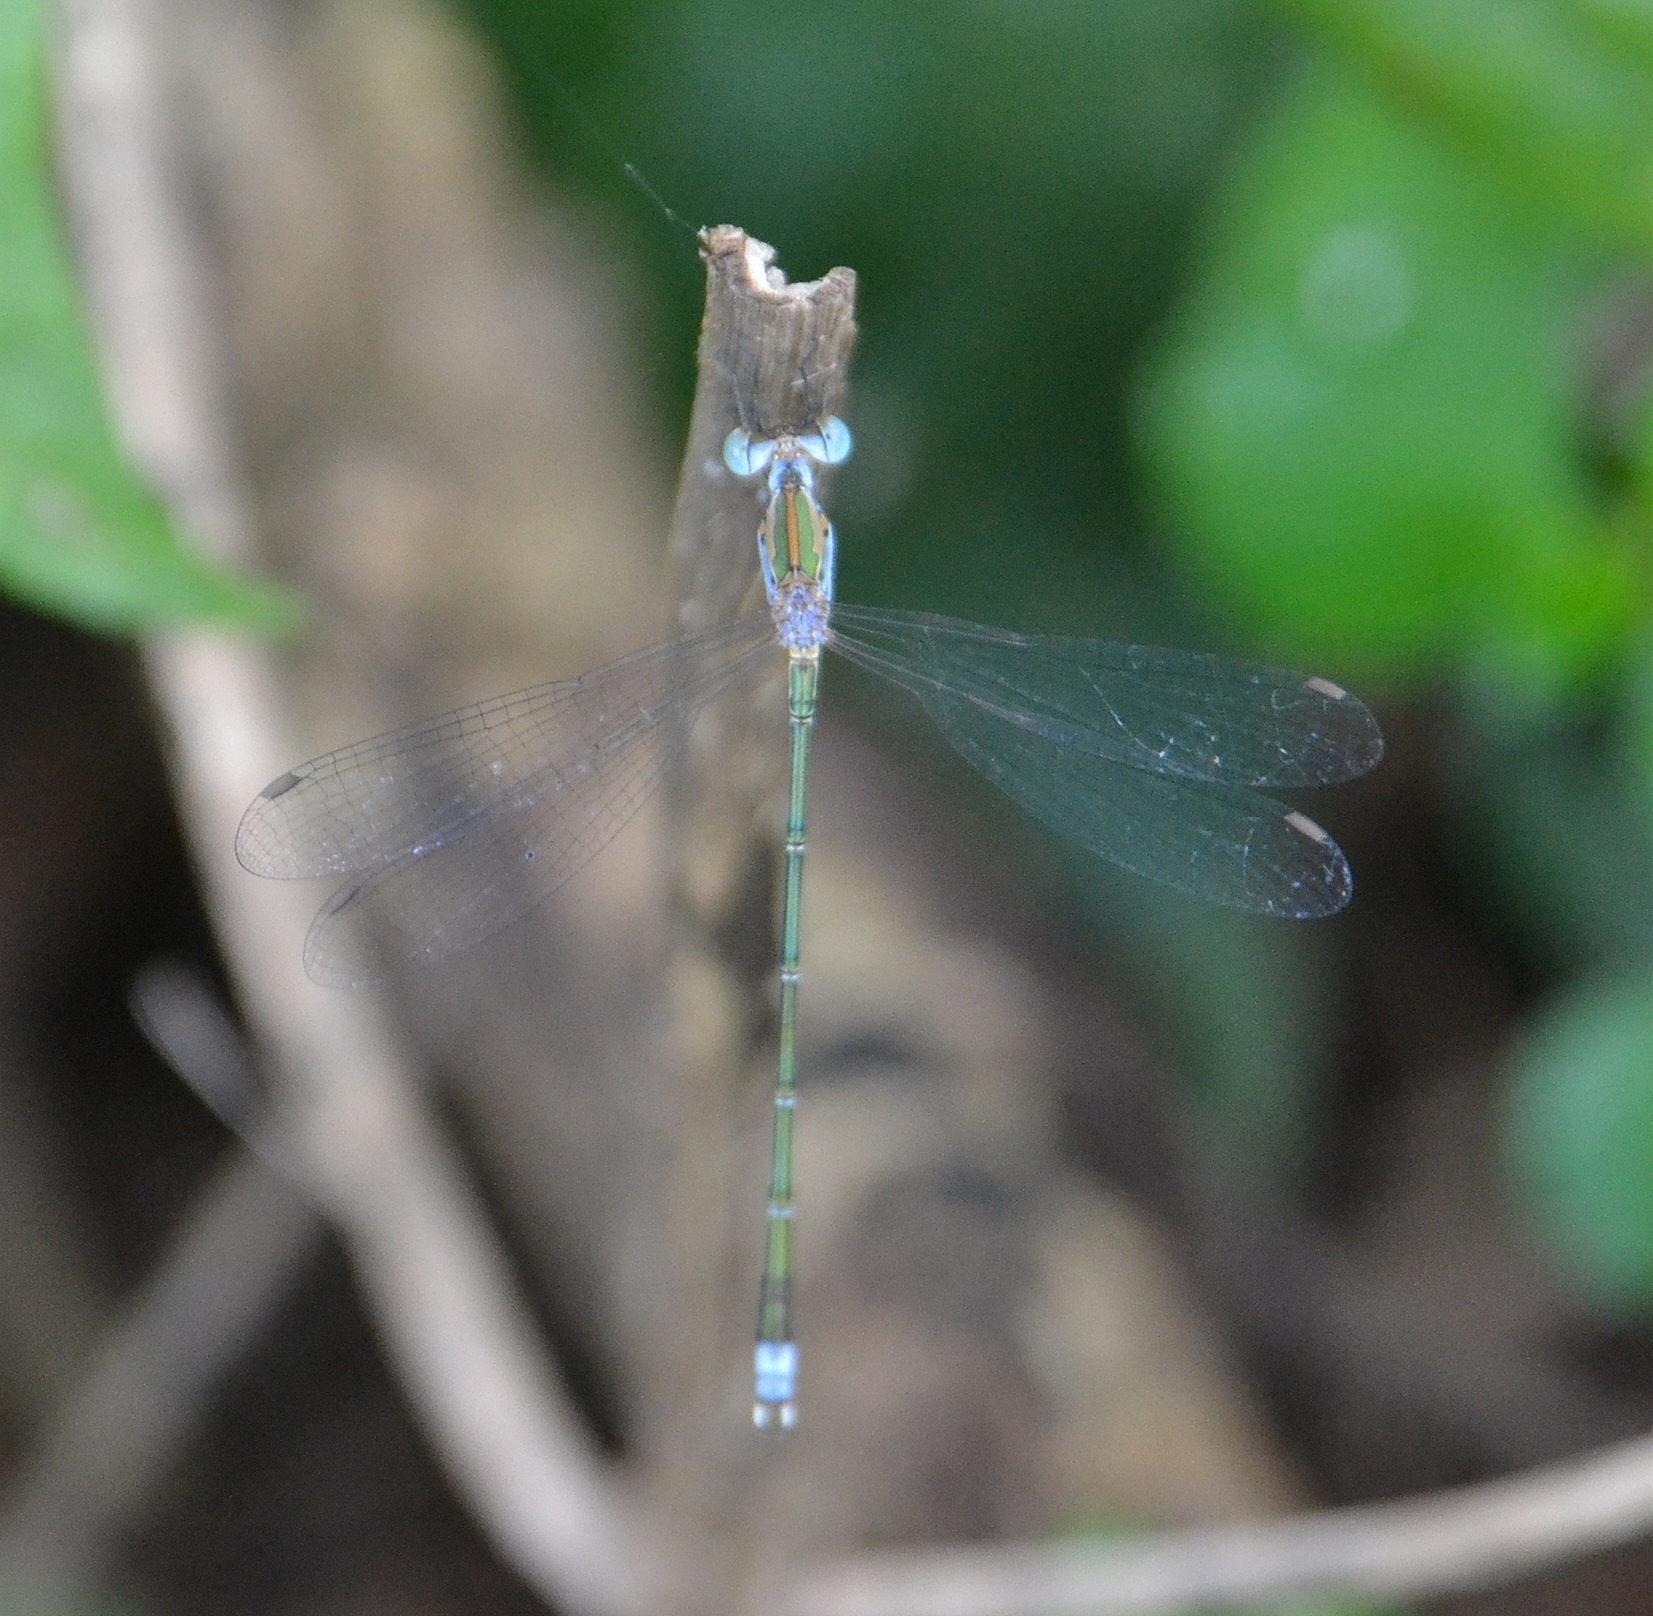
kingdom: Animalia
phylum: Arthropoda
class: Insecta
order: Odonata
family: Lestidae
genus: Lestes
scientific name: Lestes elatus
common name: Emerald spreadwing
